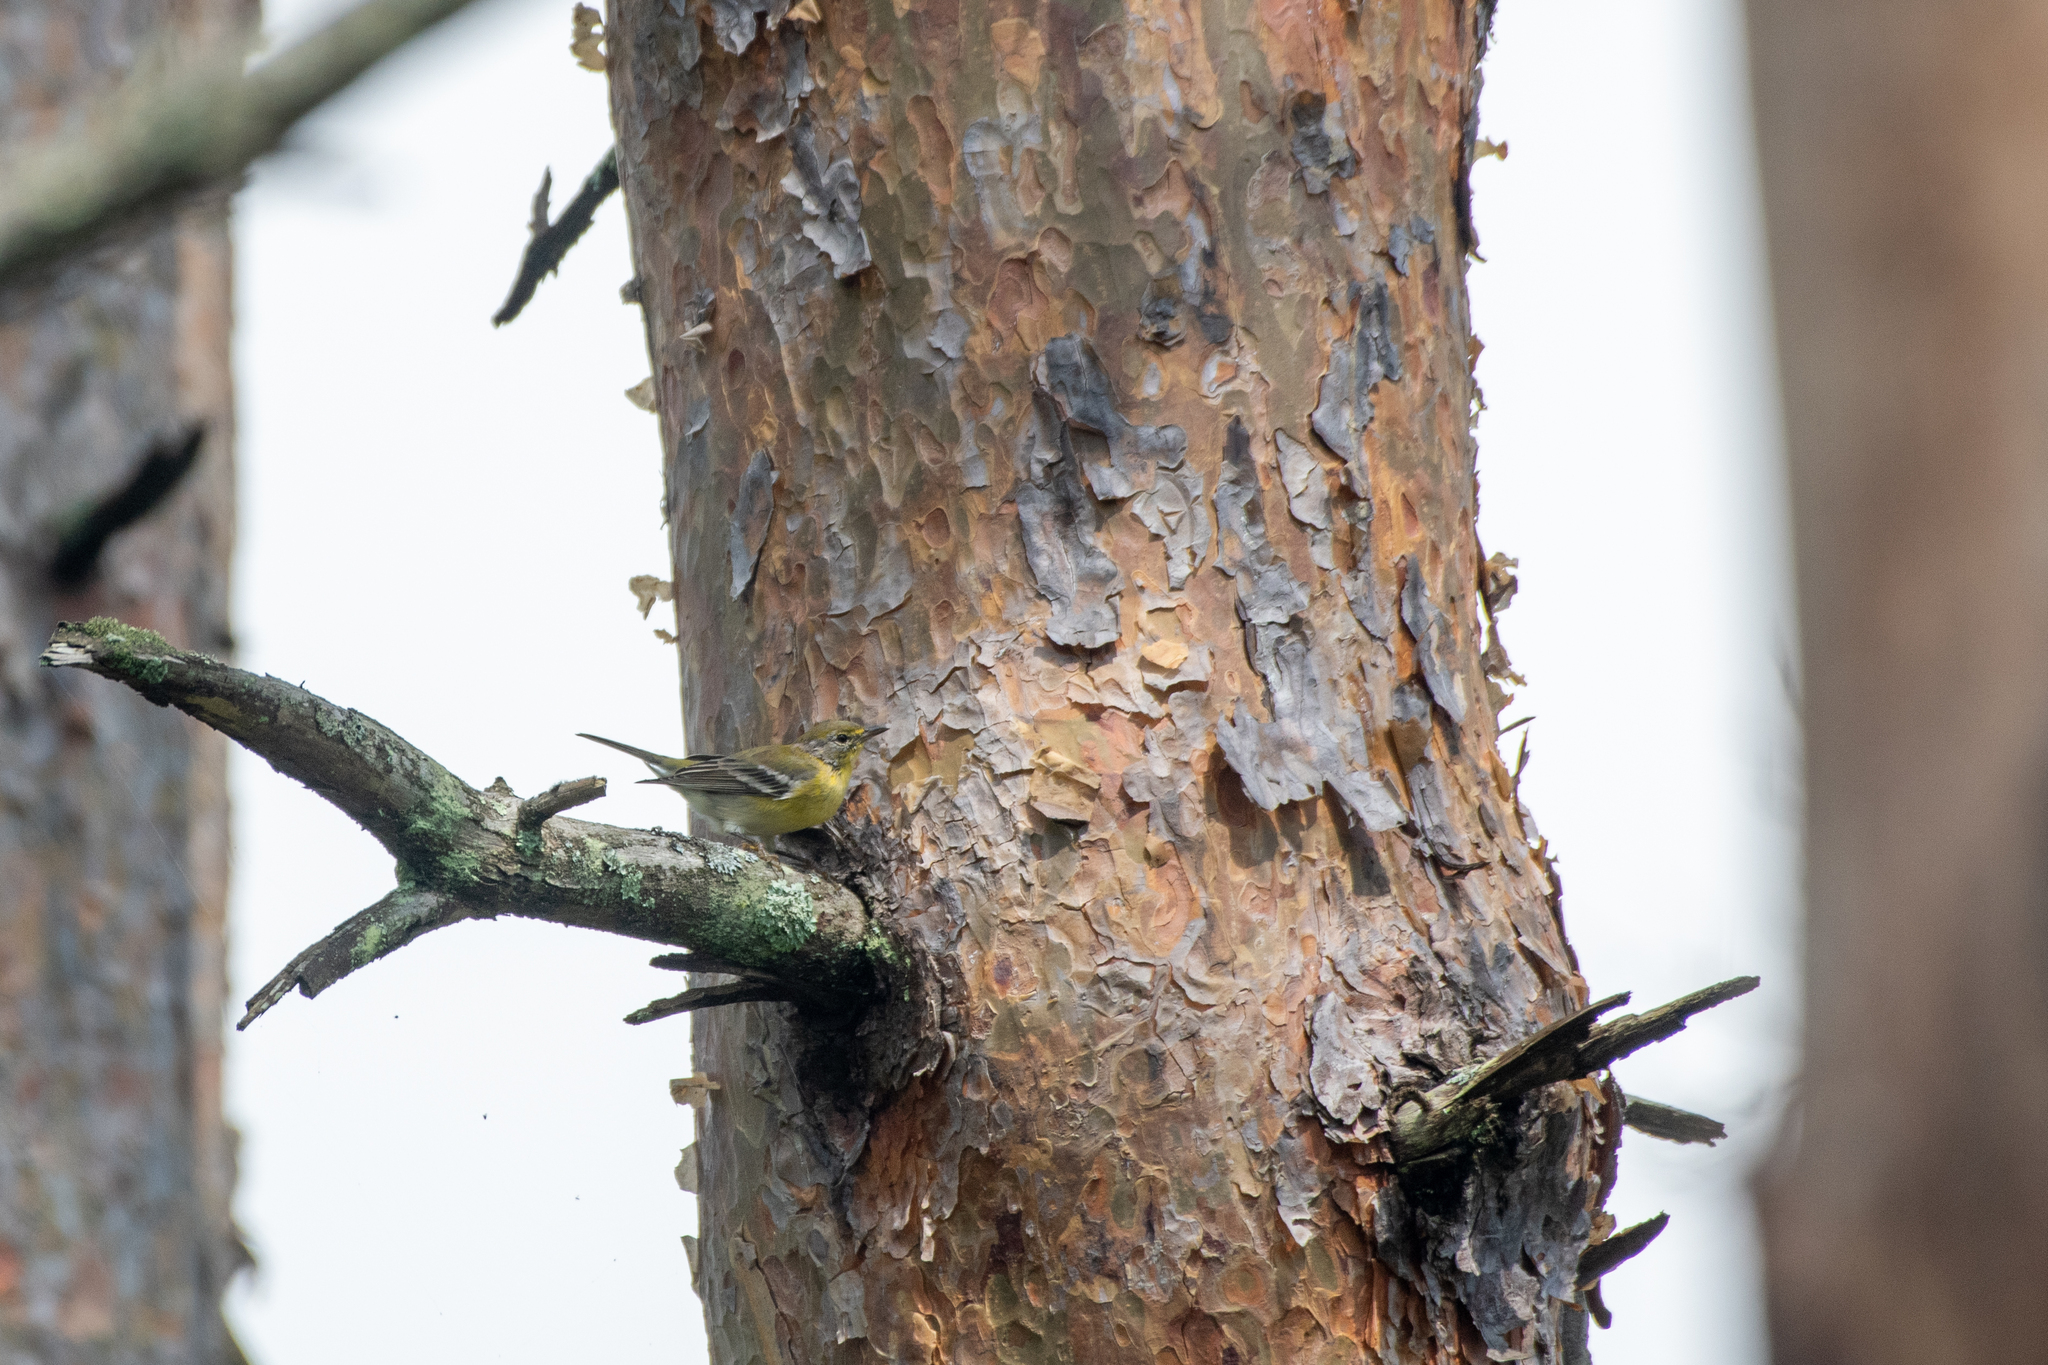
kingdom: Animalia
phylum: Chordata
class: Aves
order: Passeriformes
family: Parulidae
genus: Setophaga
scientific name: Setophaga pinus
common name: Pine warbler
